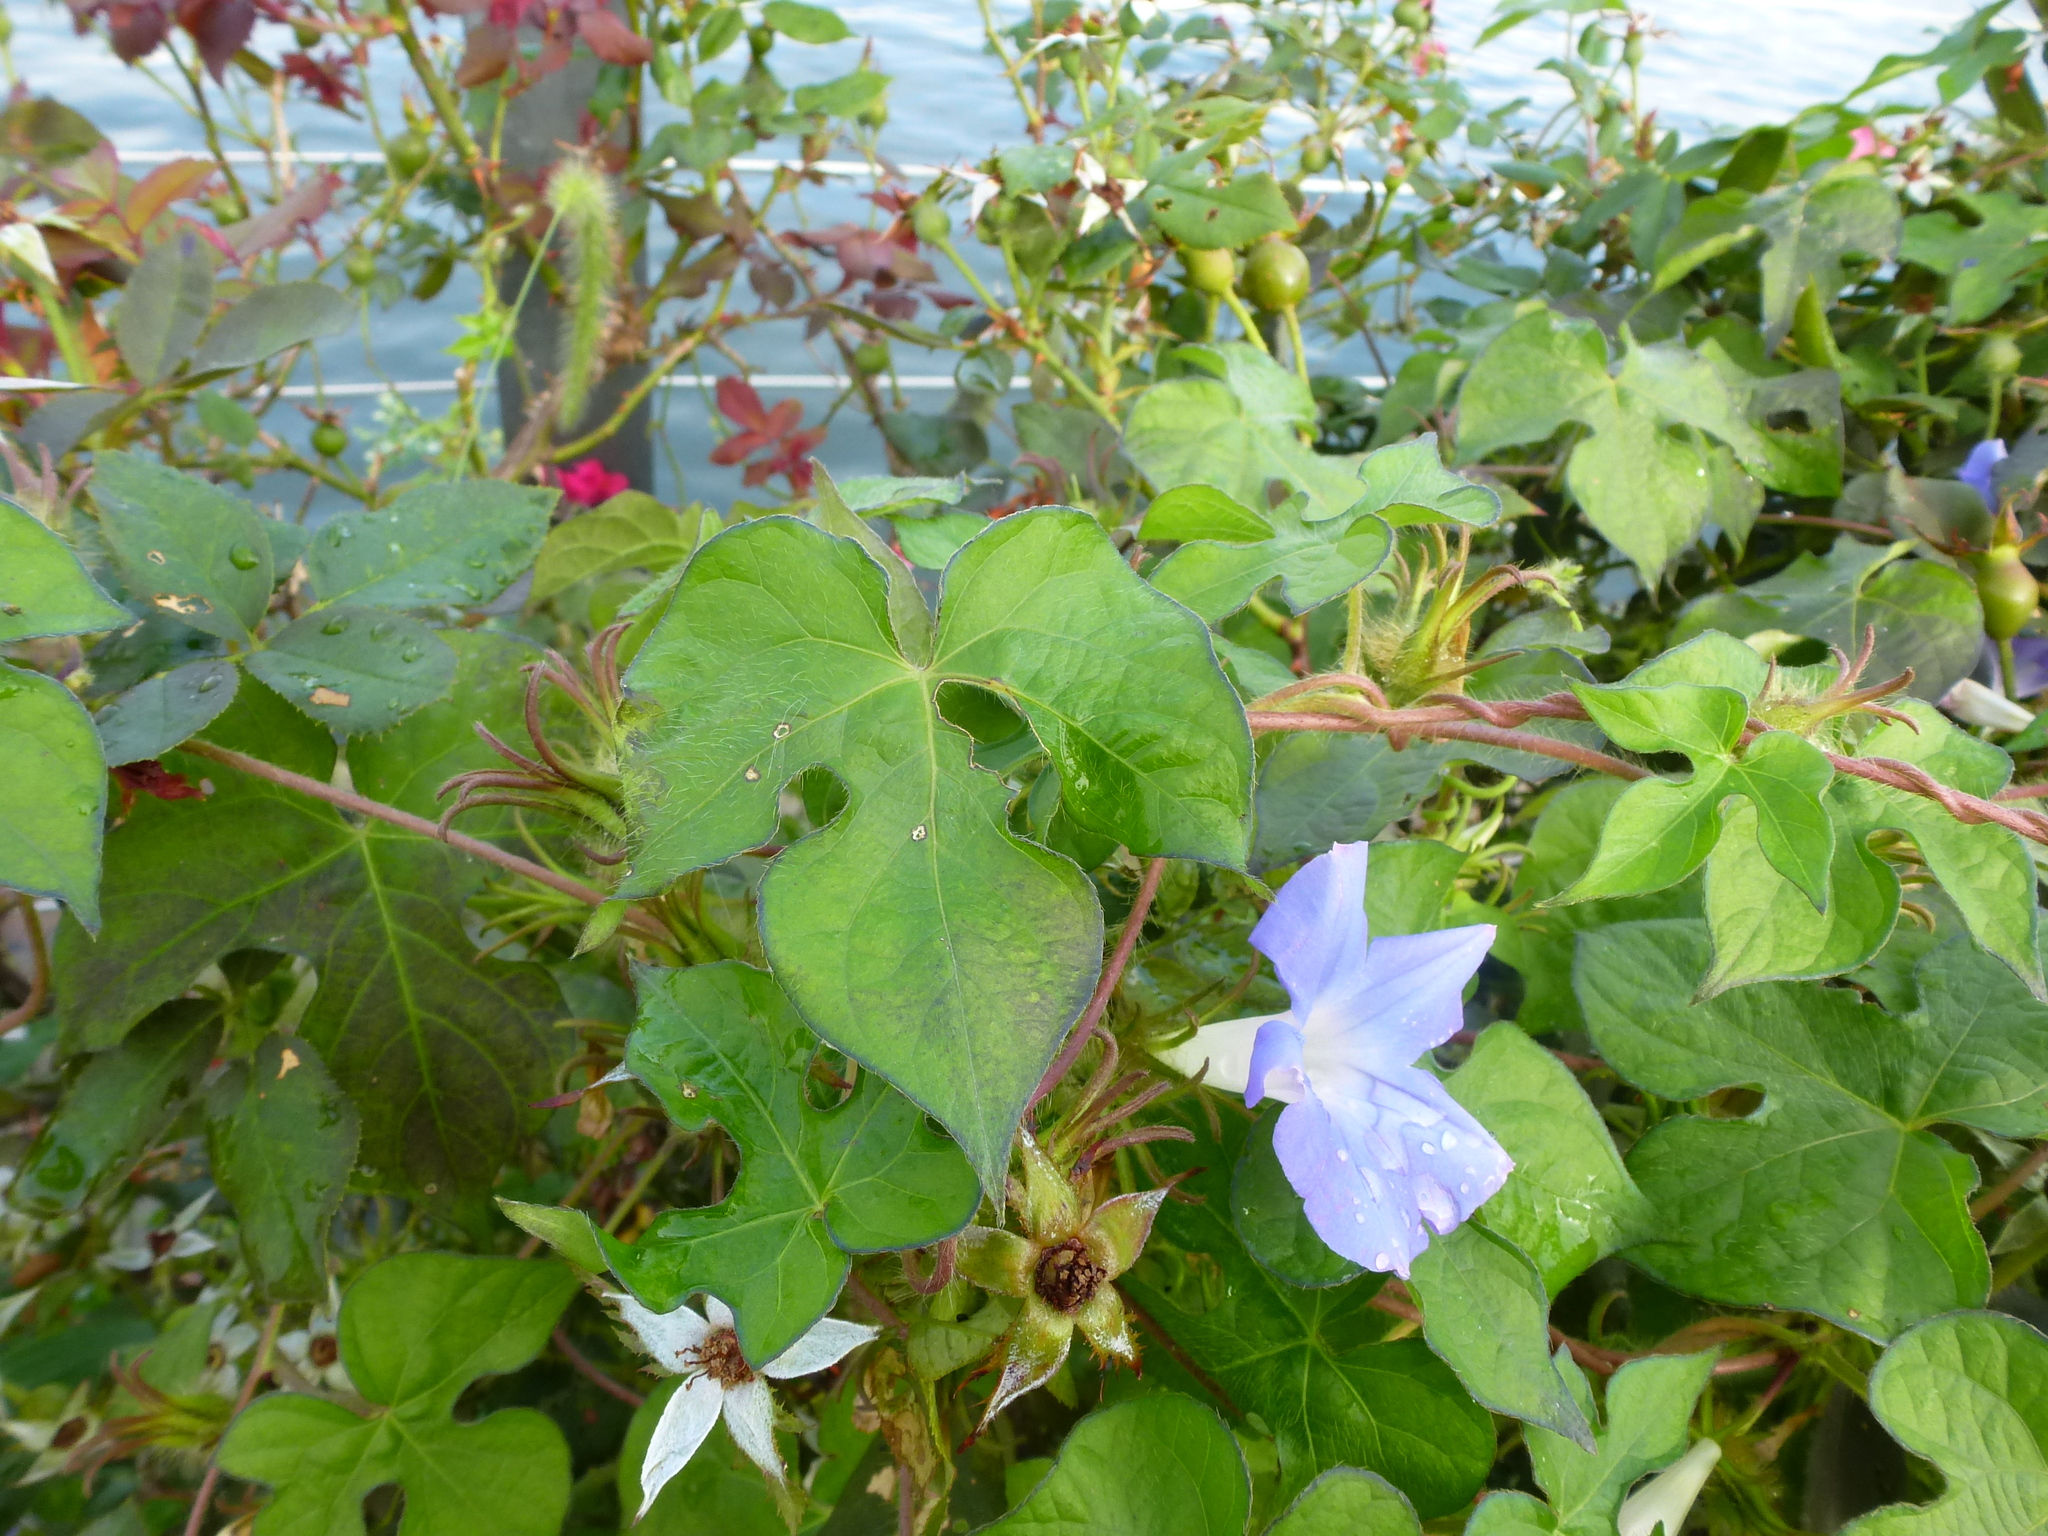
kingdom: Plantae
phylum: Tracheophyta
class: Magnoliopsida
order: Solanales
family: Convolvulaceae
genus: Ipomoea
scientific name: Ipomoea hederacea
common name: Ivy-leaved morning-glory
